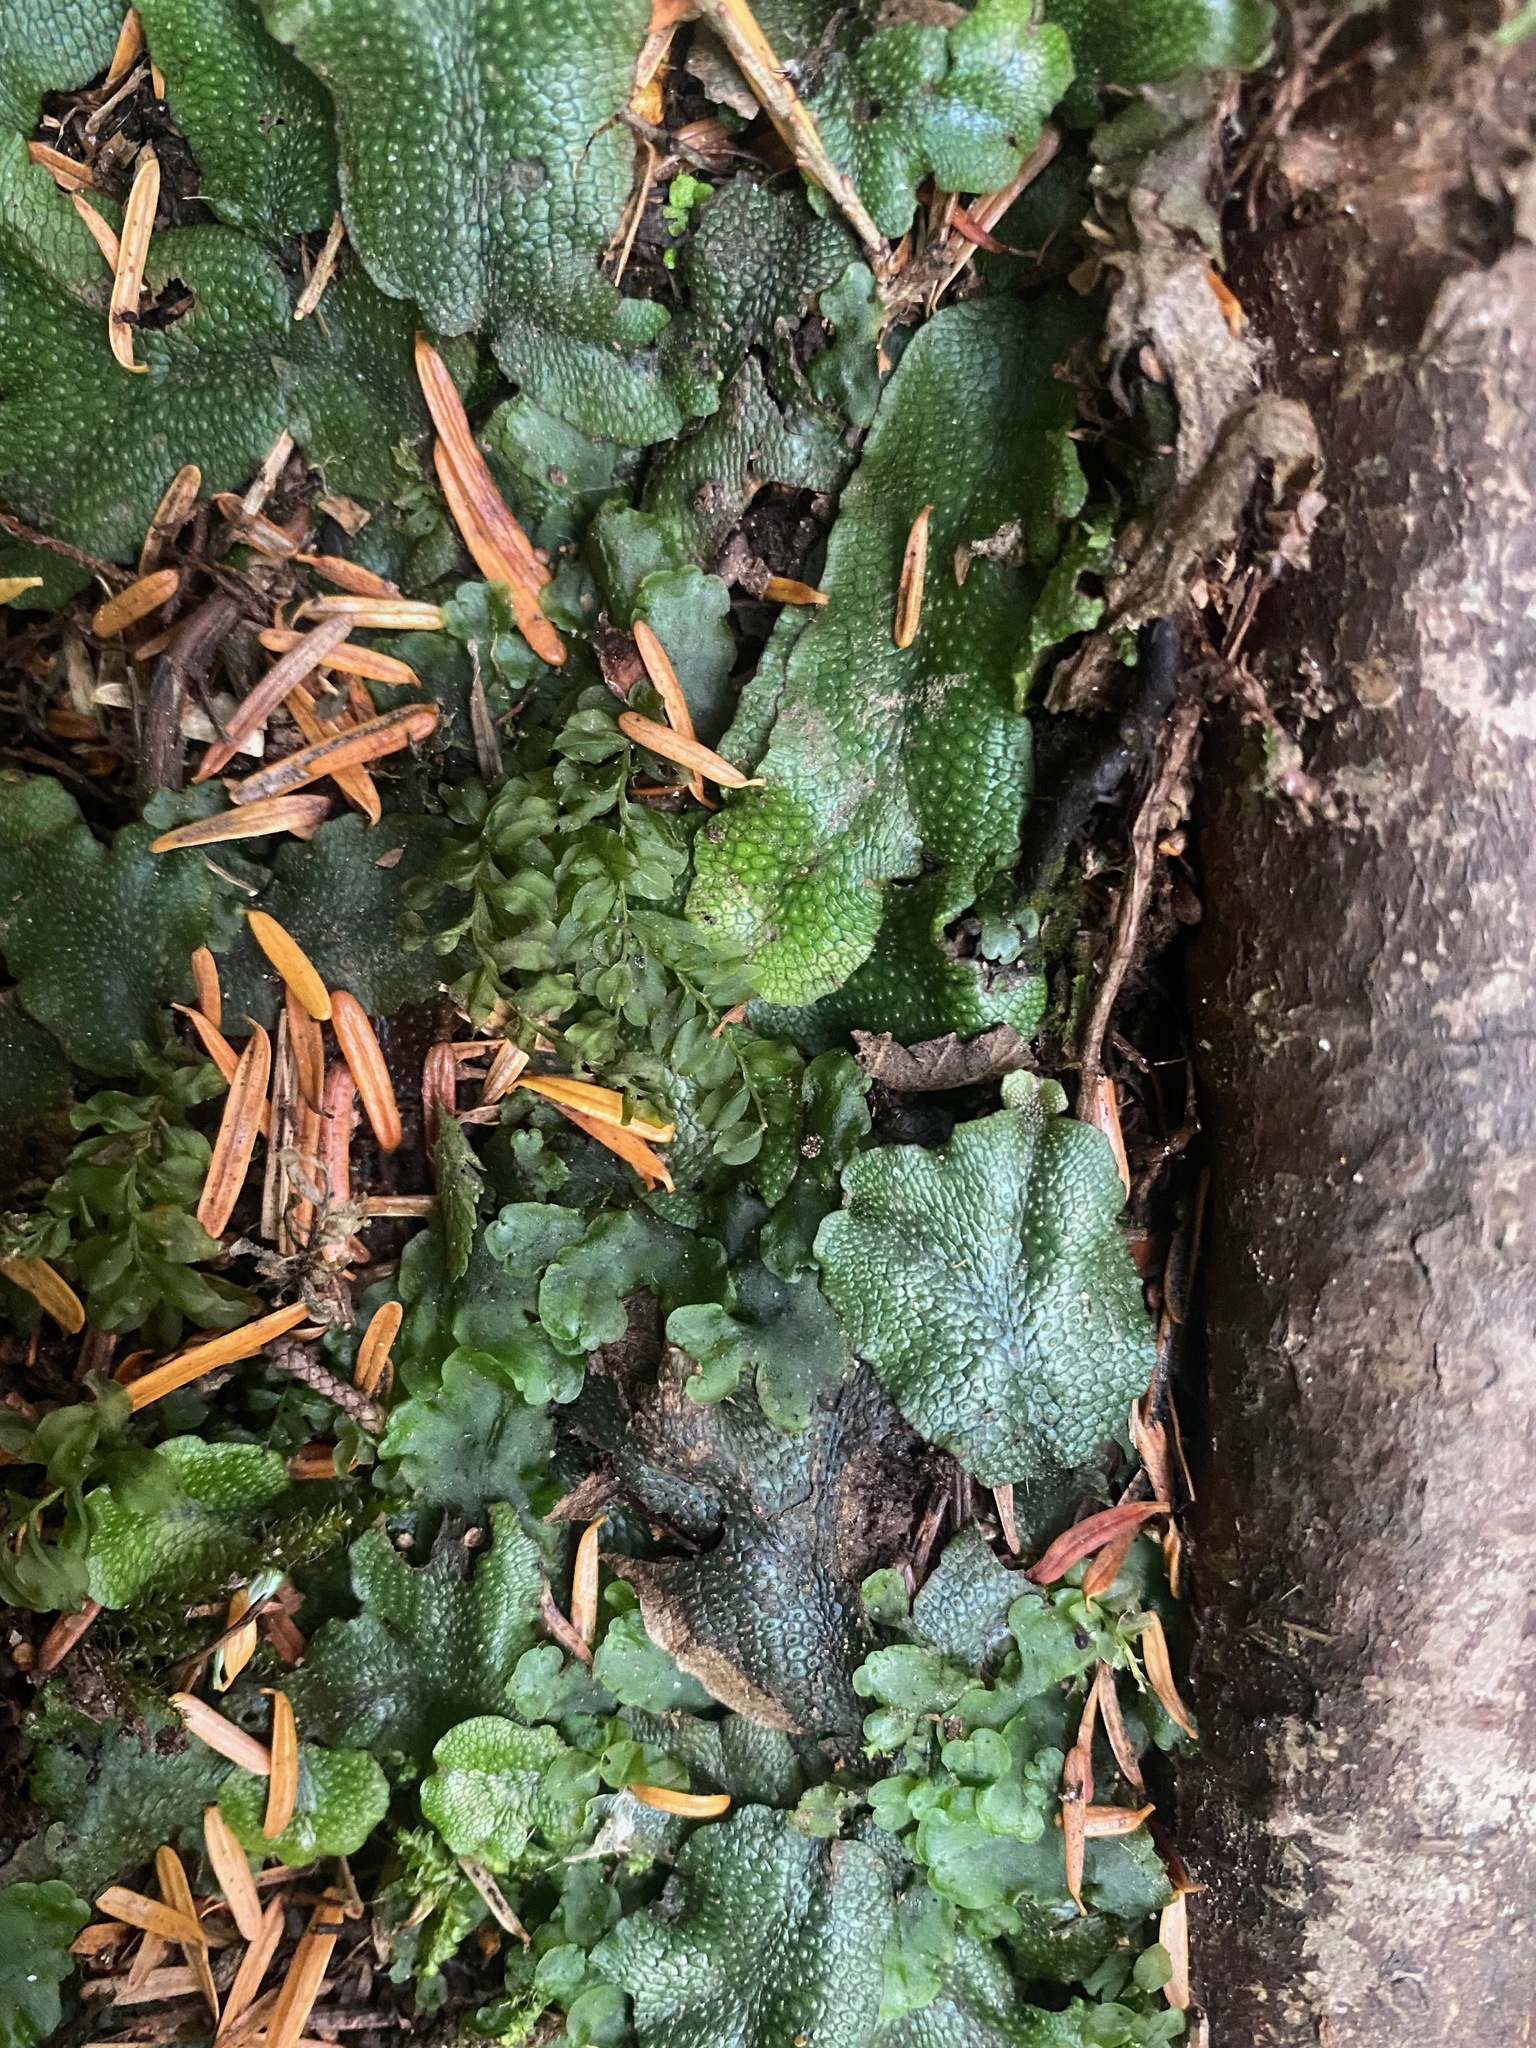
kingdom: Plantae
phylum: Marchantiophyta
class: Marchantiopsida
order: Marchantiales
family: Conocephalaceae
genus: Conocephalum
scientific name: Conocephalum salebrosum
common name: Cat-tongue liverwort
